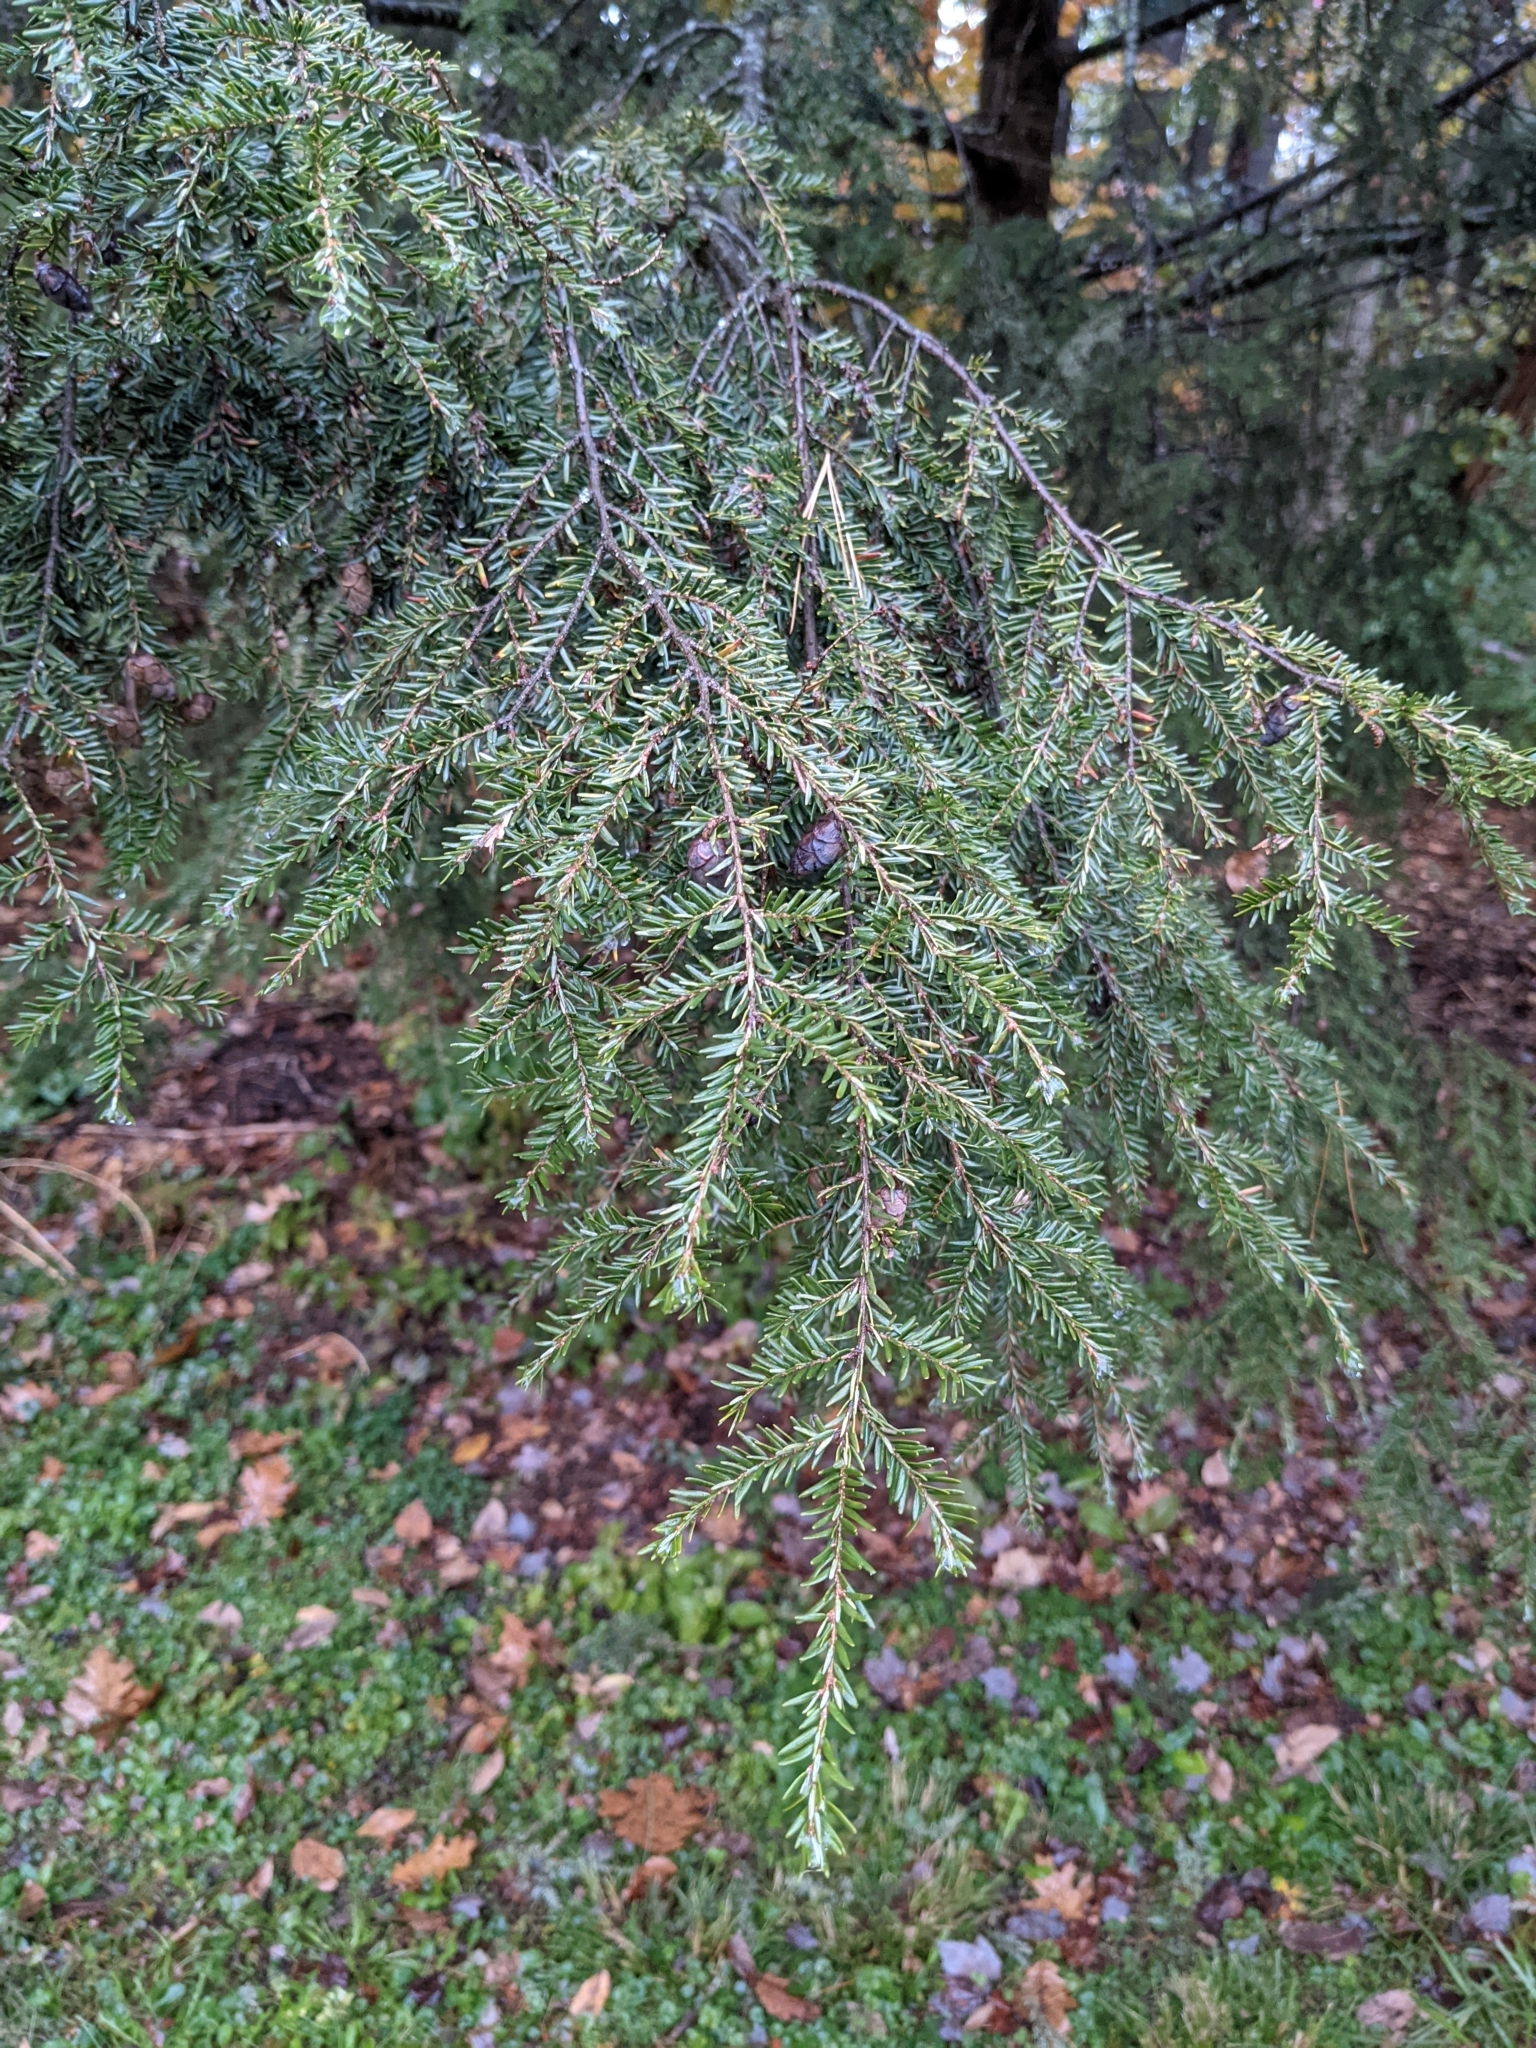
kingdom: Plantae
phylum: Tracheophyta
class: Pinopsida
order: Pinales
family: Pinaceae
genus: Tsuga
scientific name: Tsuga canadensis
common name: Eastern hemlock
